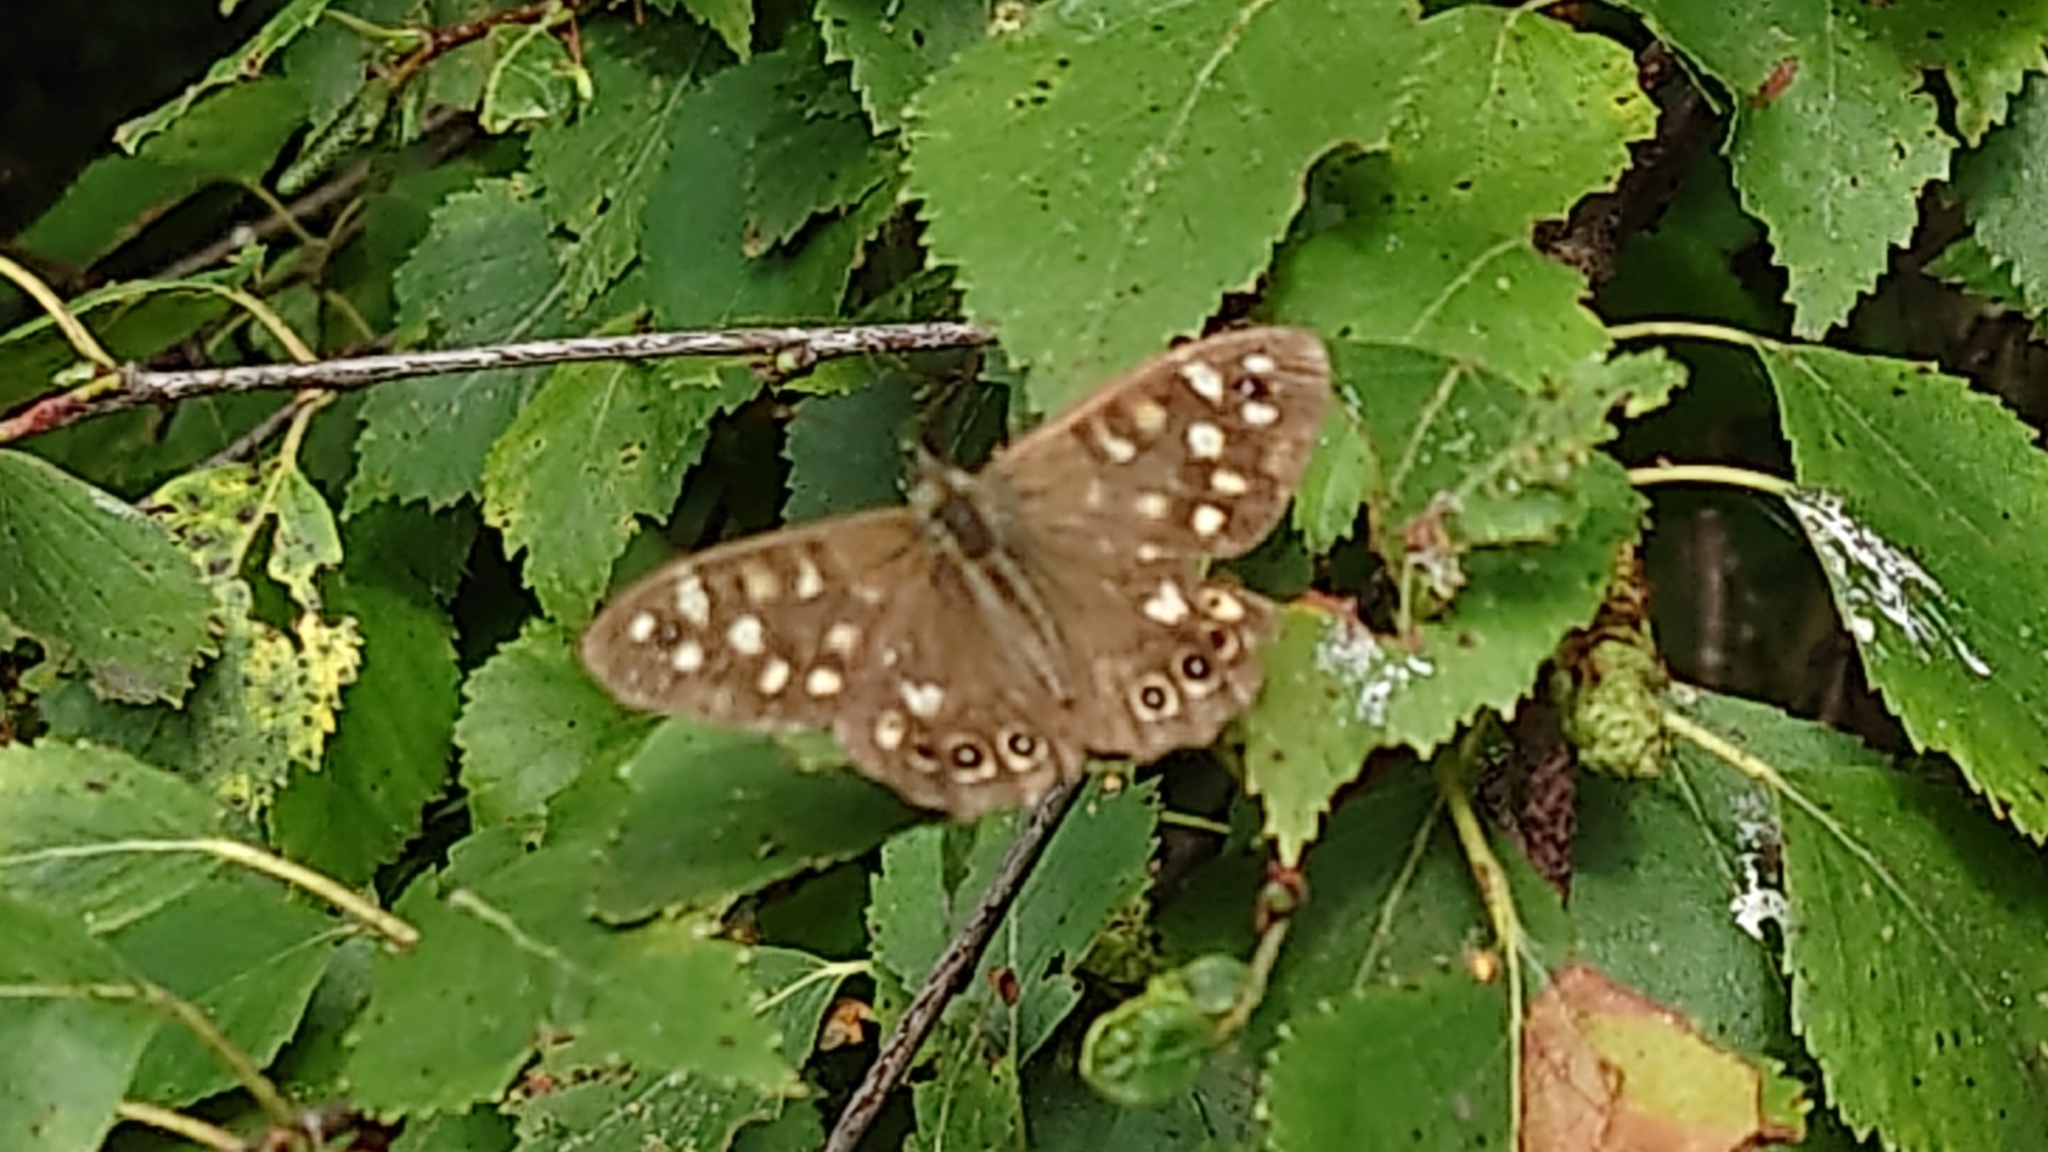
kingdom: Animalia
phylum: Arthropoda
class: Insecta
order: Lepidoptera
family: Nymphalidae
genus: Pararge
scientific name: Pararge aegeria
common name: Speckled wood
